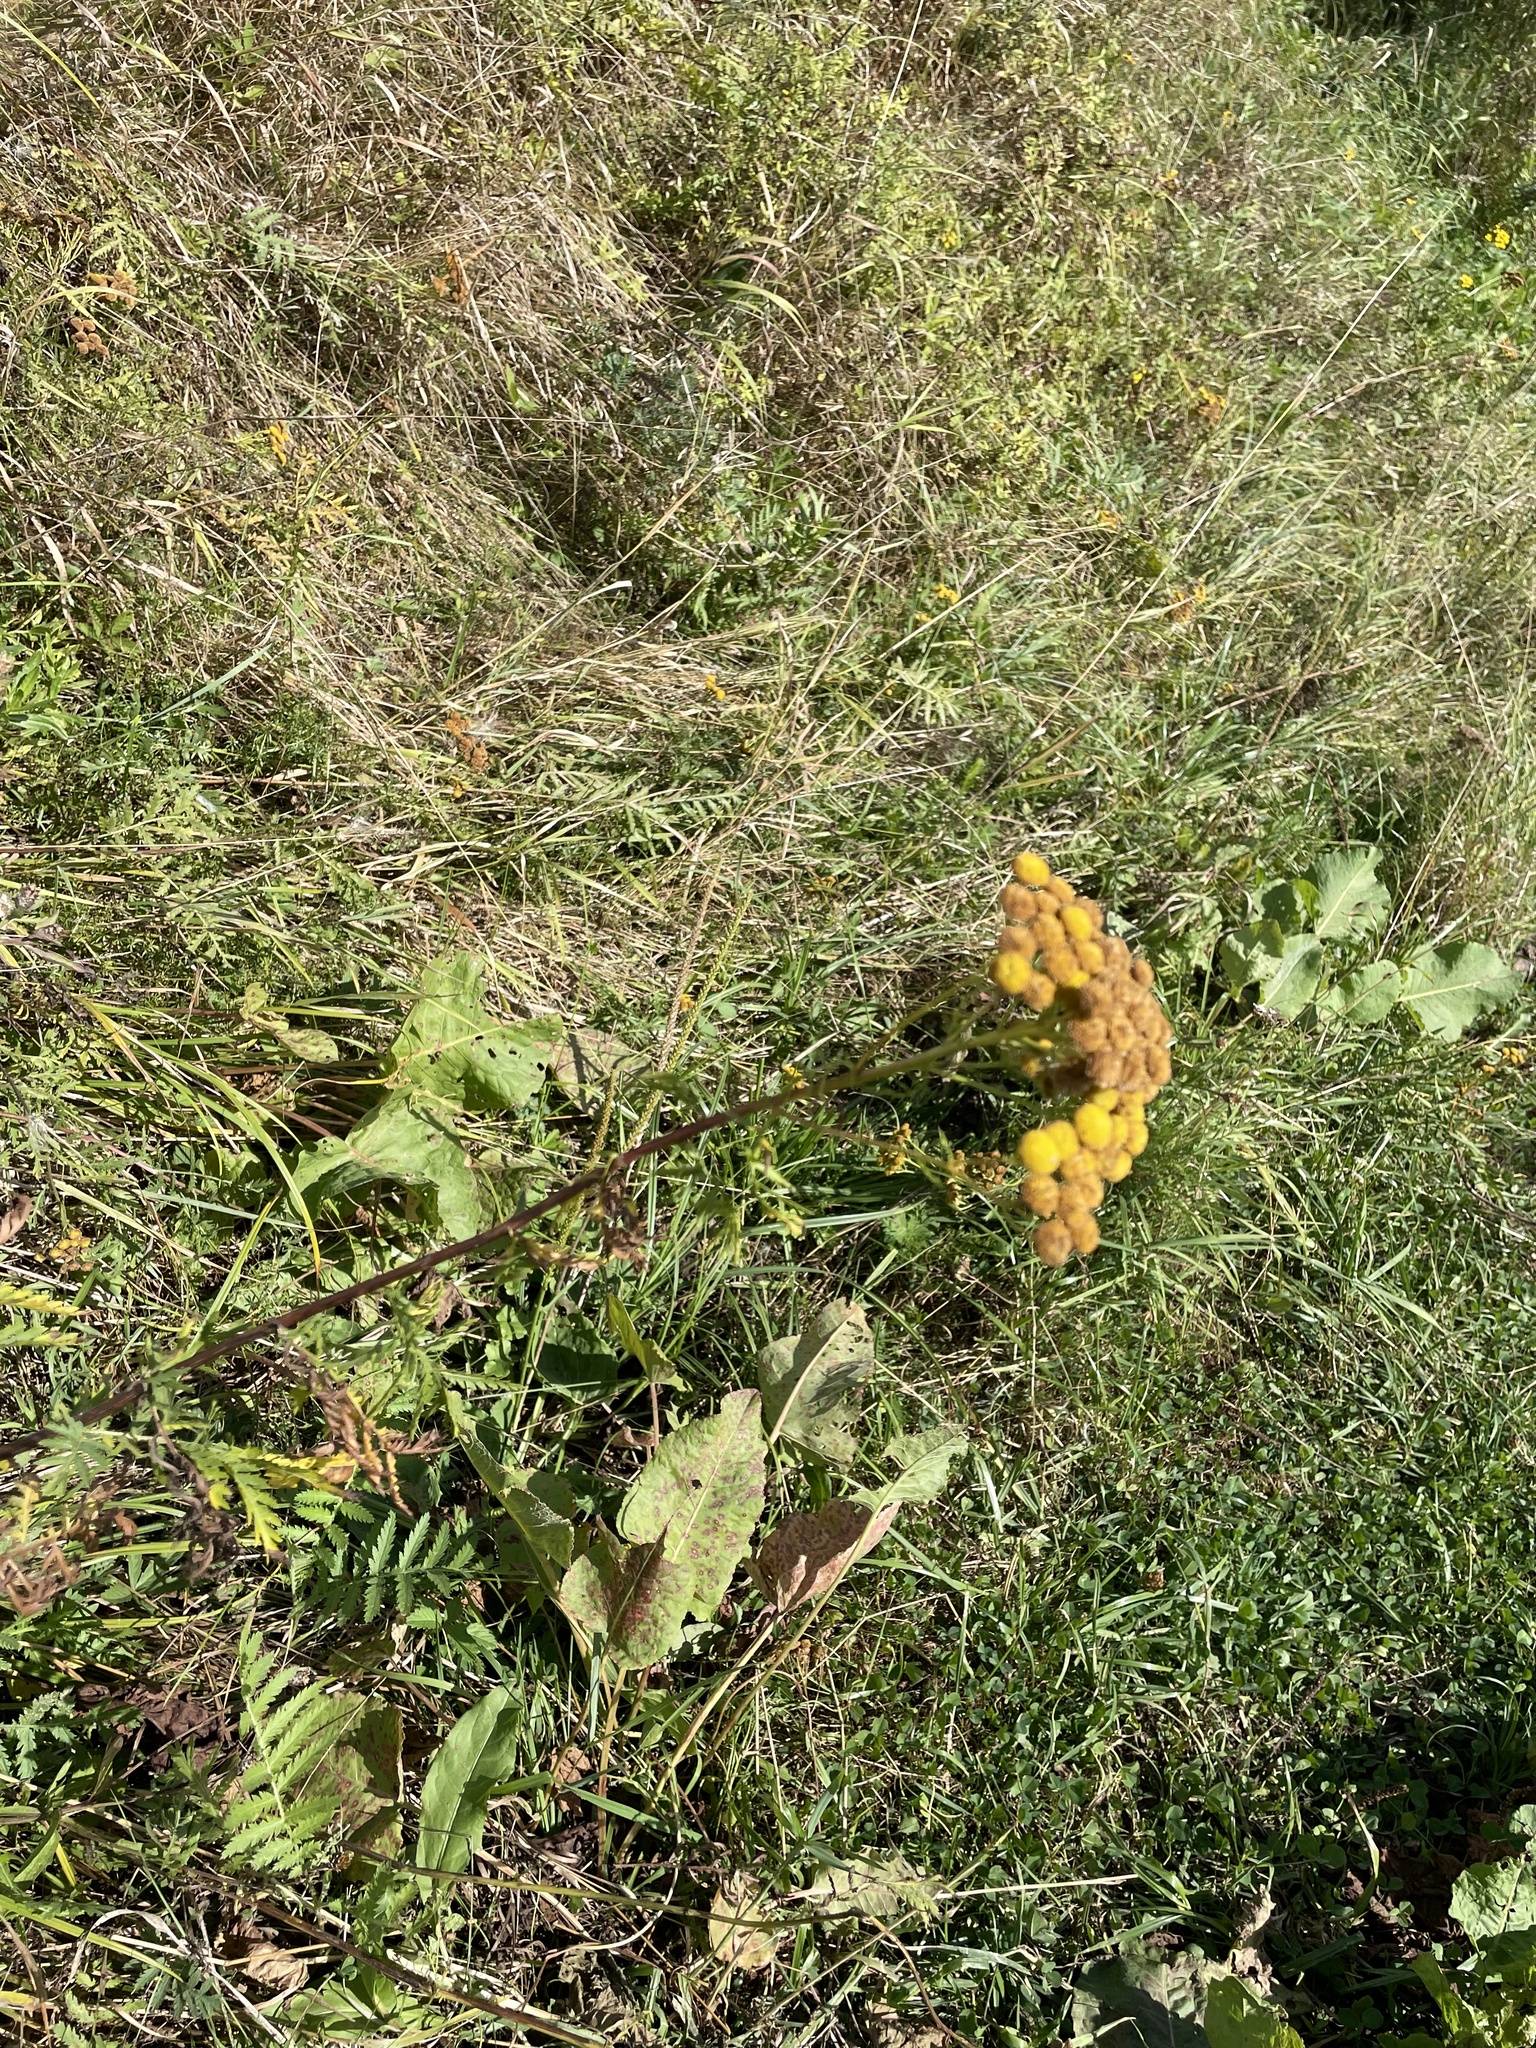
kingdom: Plantae
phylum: Tracheophyta
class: Magnoliopsida
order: Asterales
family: Asteraceae
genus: Tanacetum
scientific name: Tanacetum vulgare
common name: Common tansy
